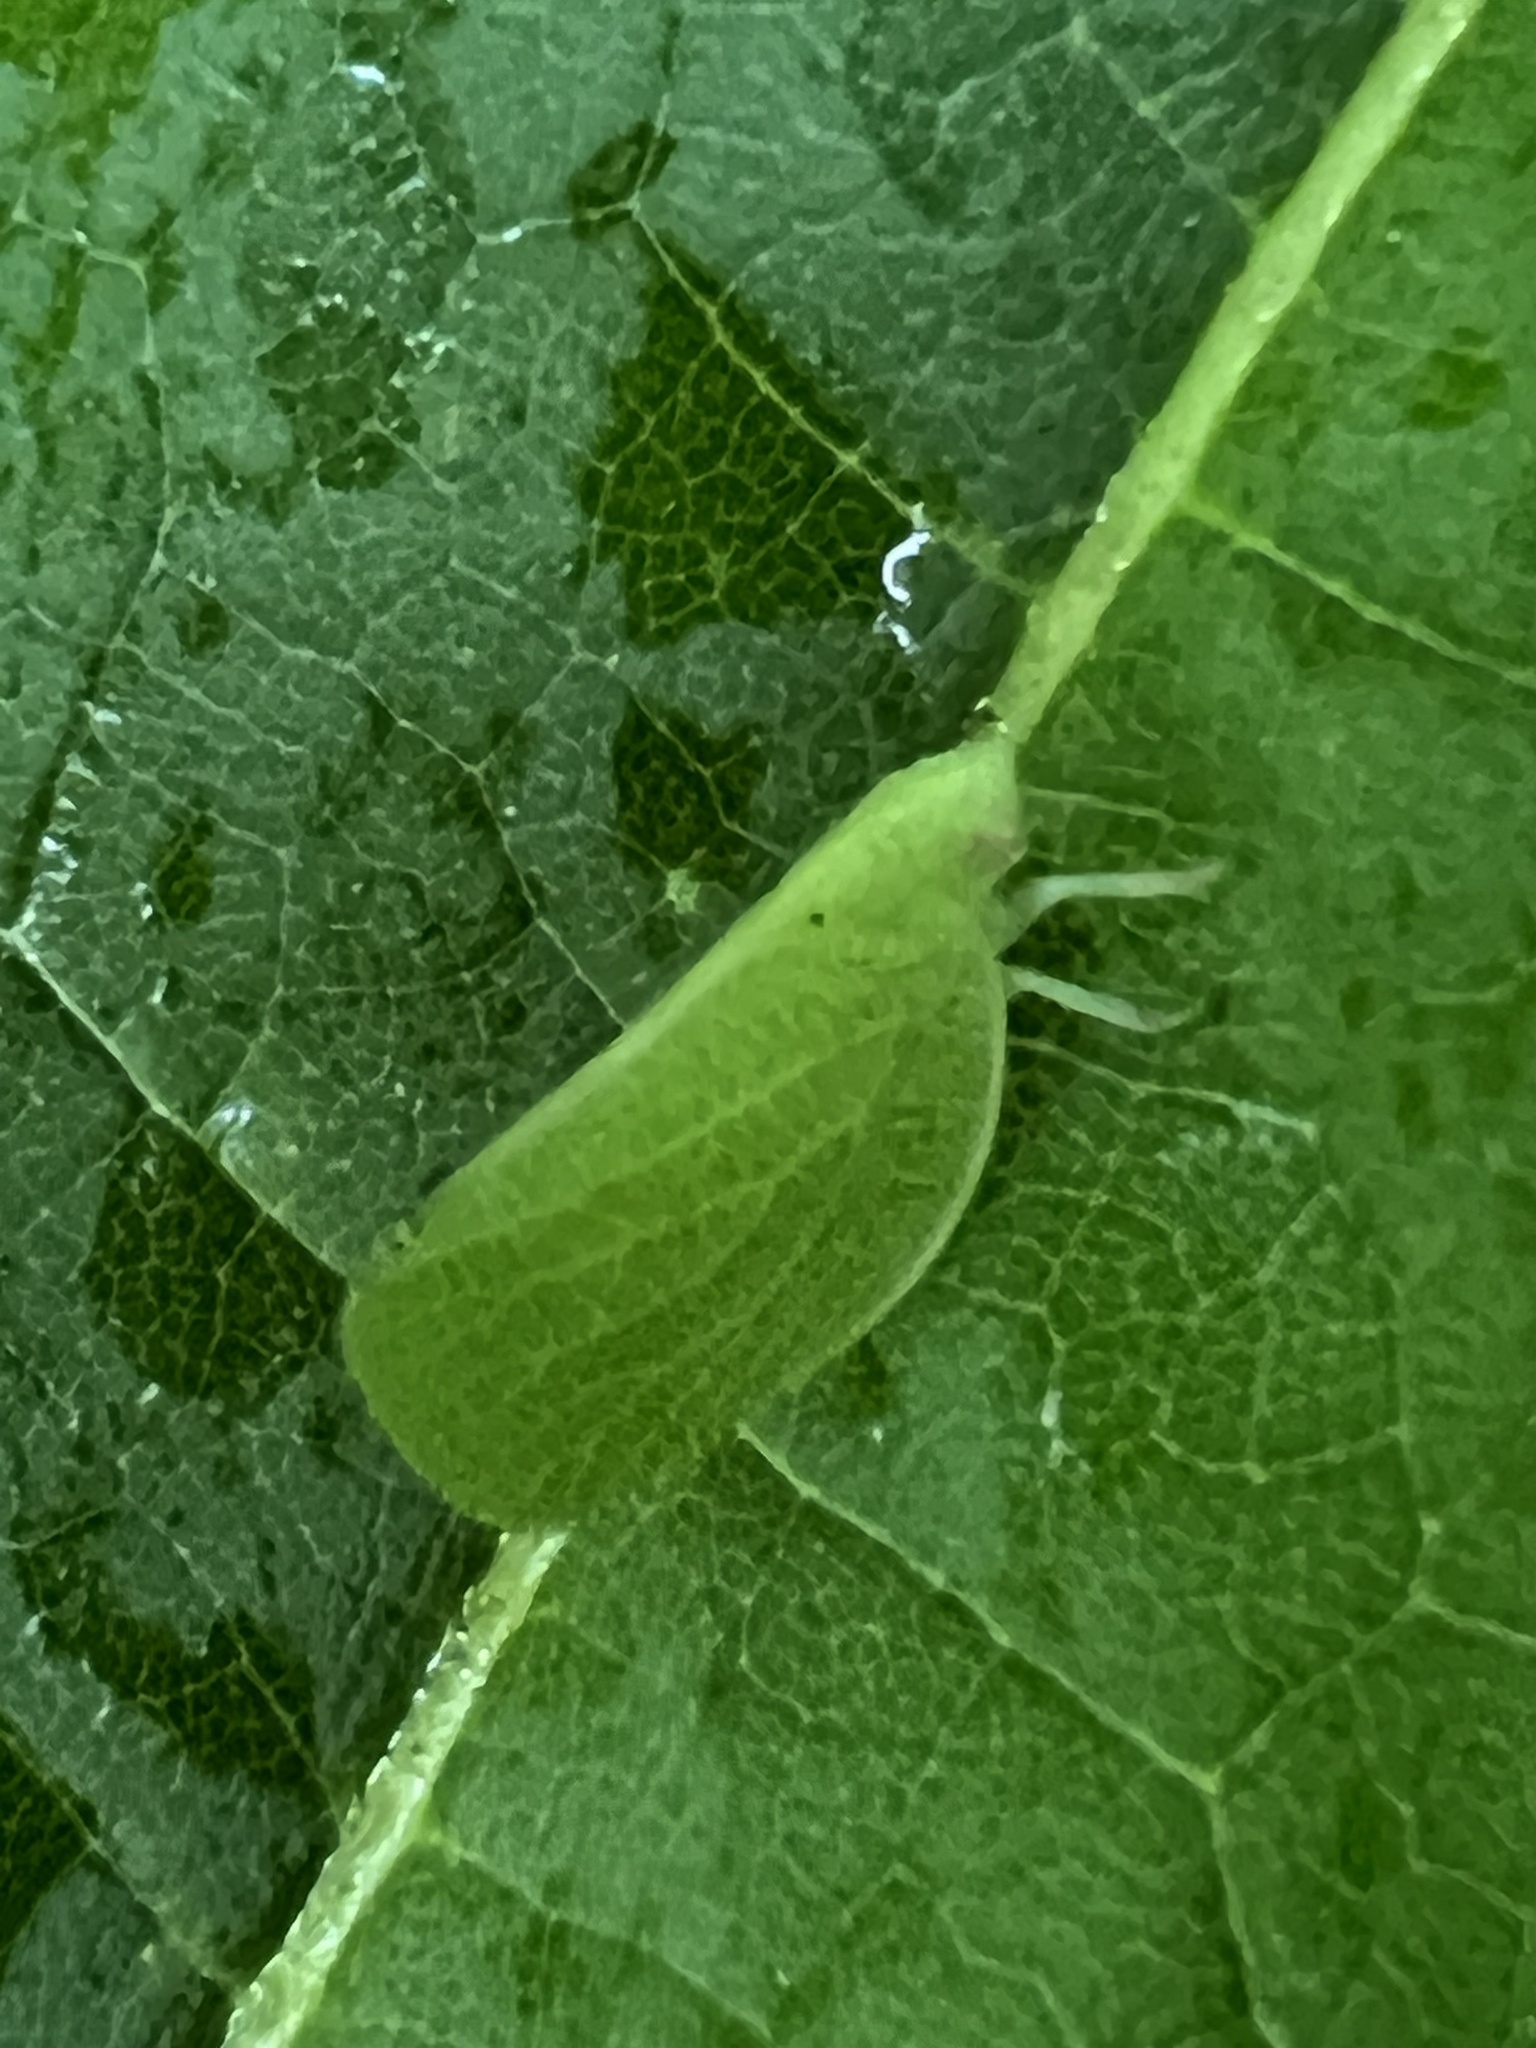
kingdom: Animalia
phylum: Arthropoda
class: Insecta
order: Hemiptera
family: Acanaloniidae
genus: Acanalonia
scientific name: Acanalonia conica
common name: Green cone-headed planthopper
